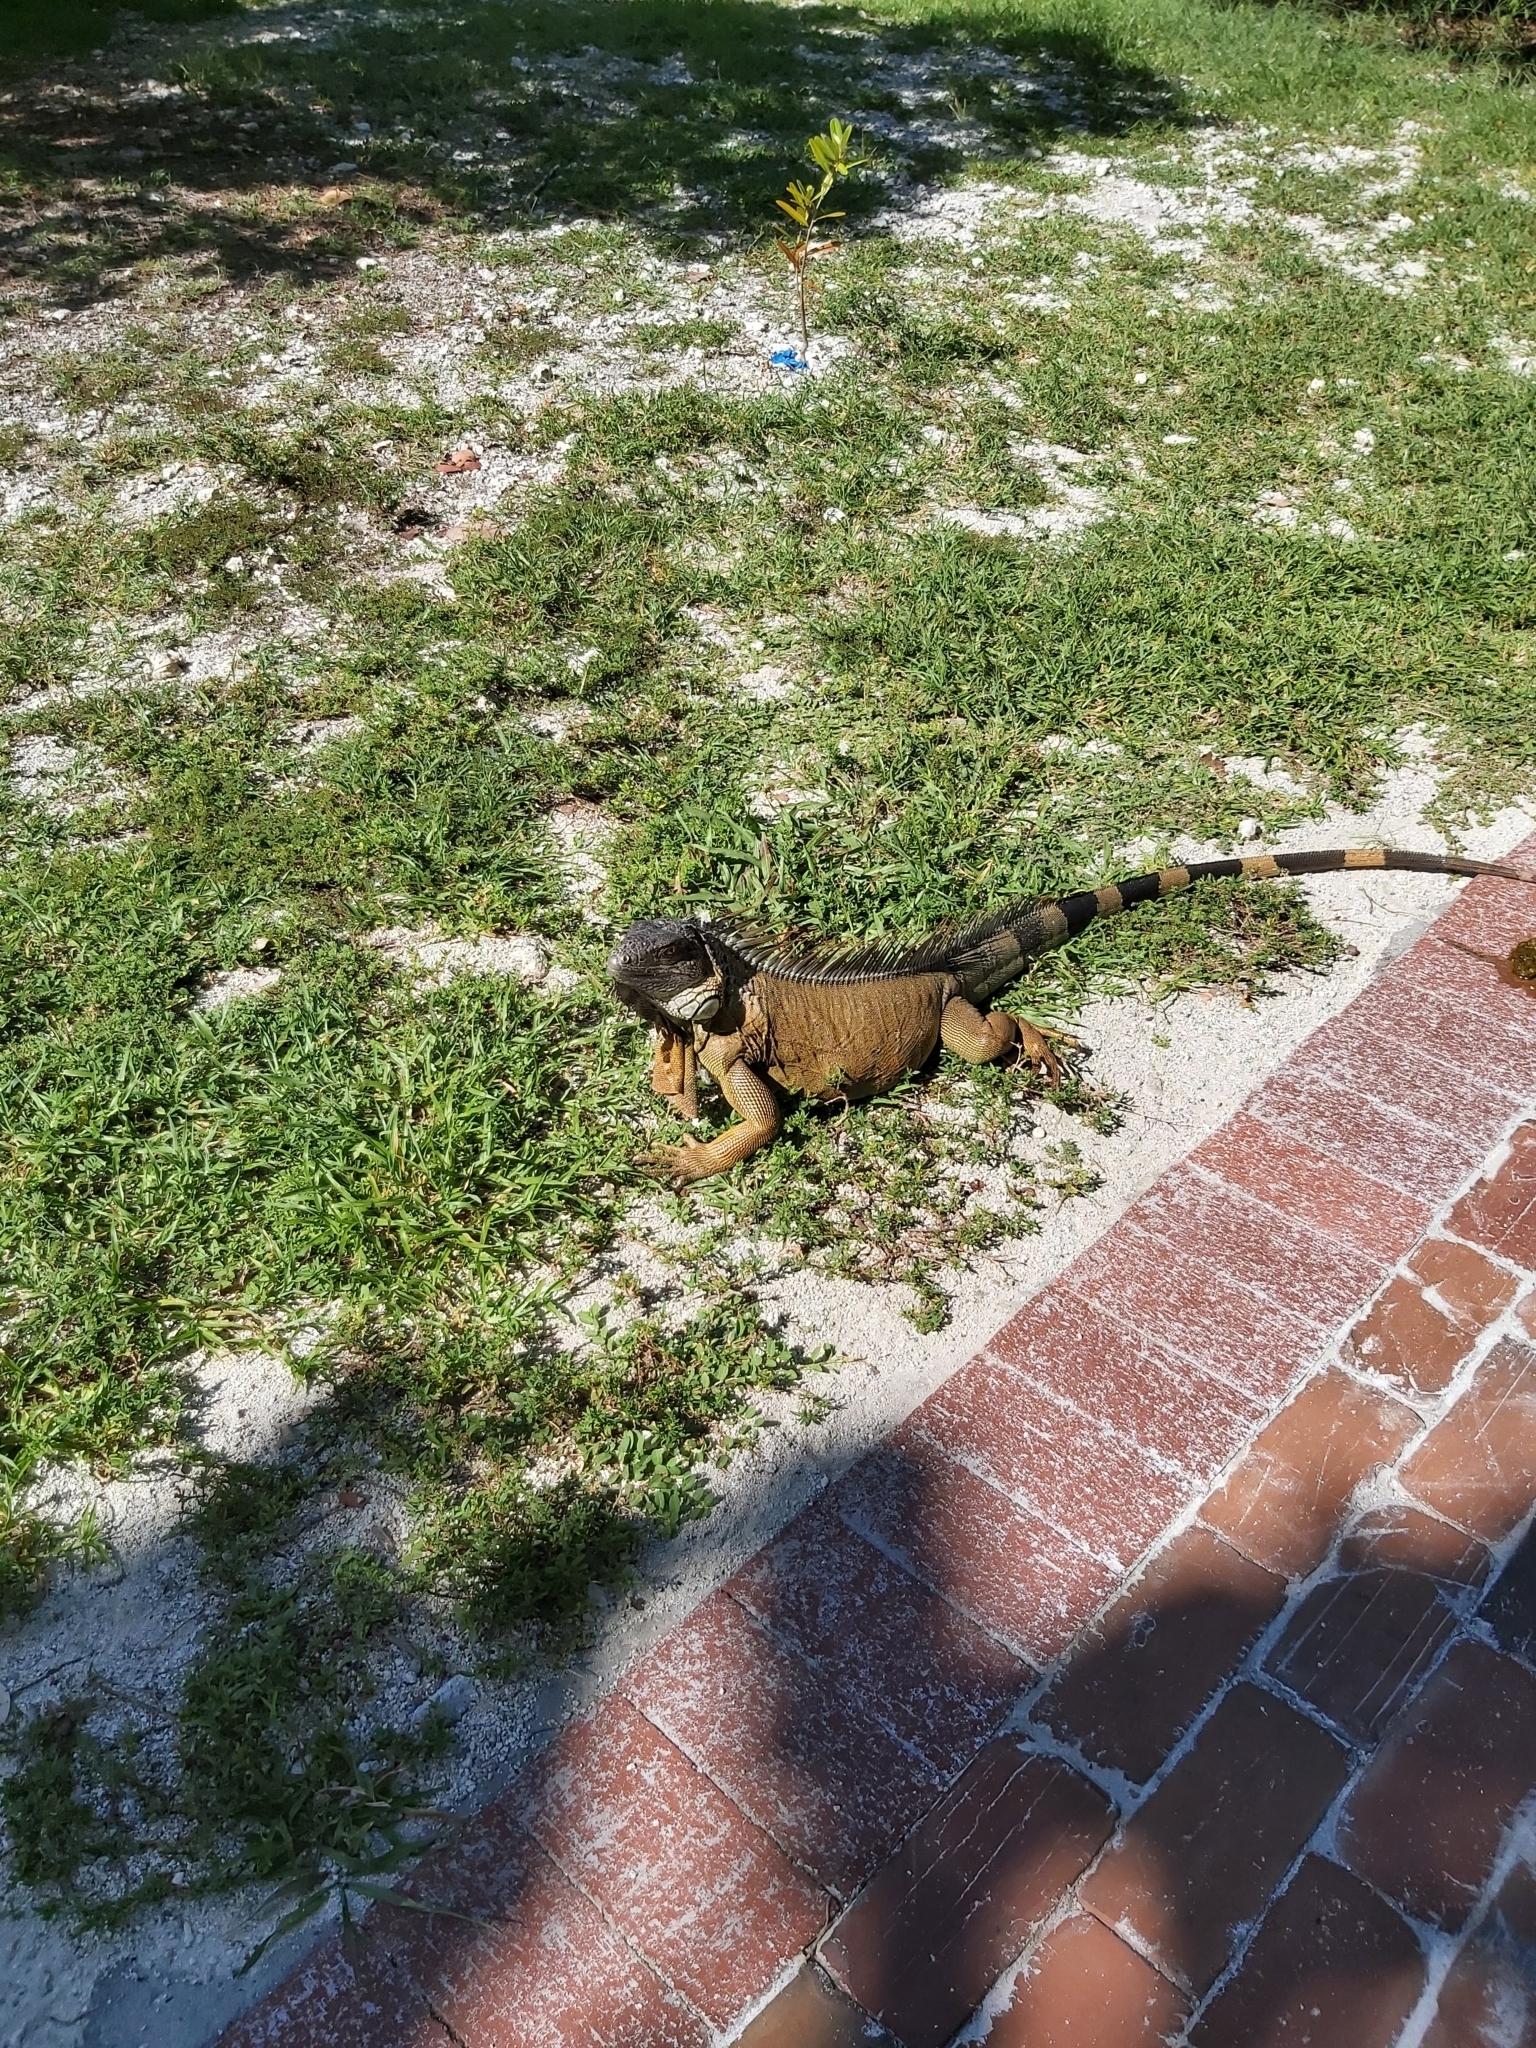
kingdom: Animalia
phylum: Chordata
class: Squamata
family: Iguanidae
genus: Iguana
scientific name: Iguana iguana
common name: Green iguana
